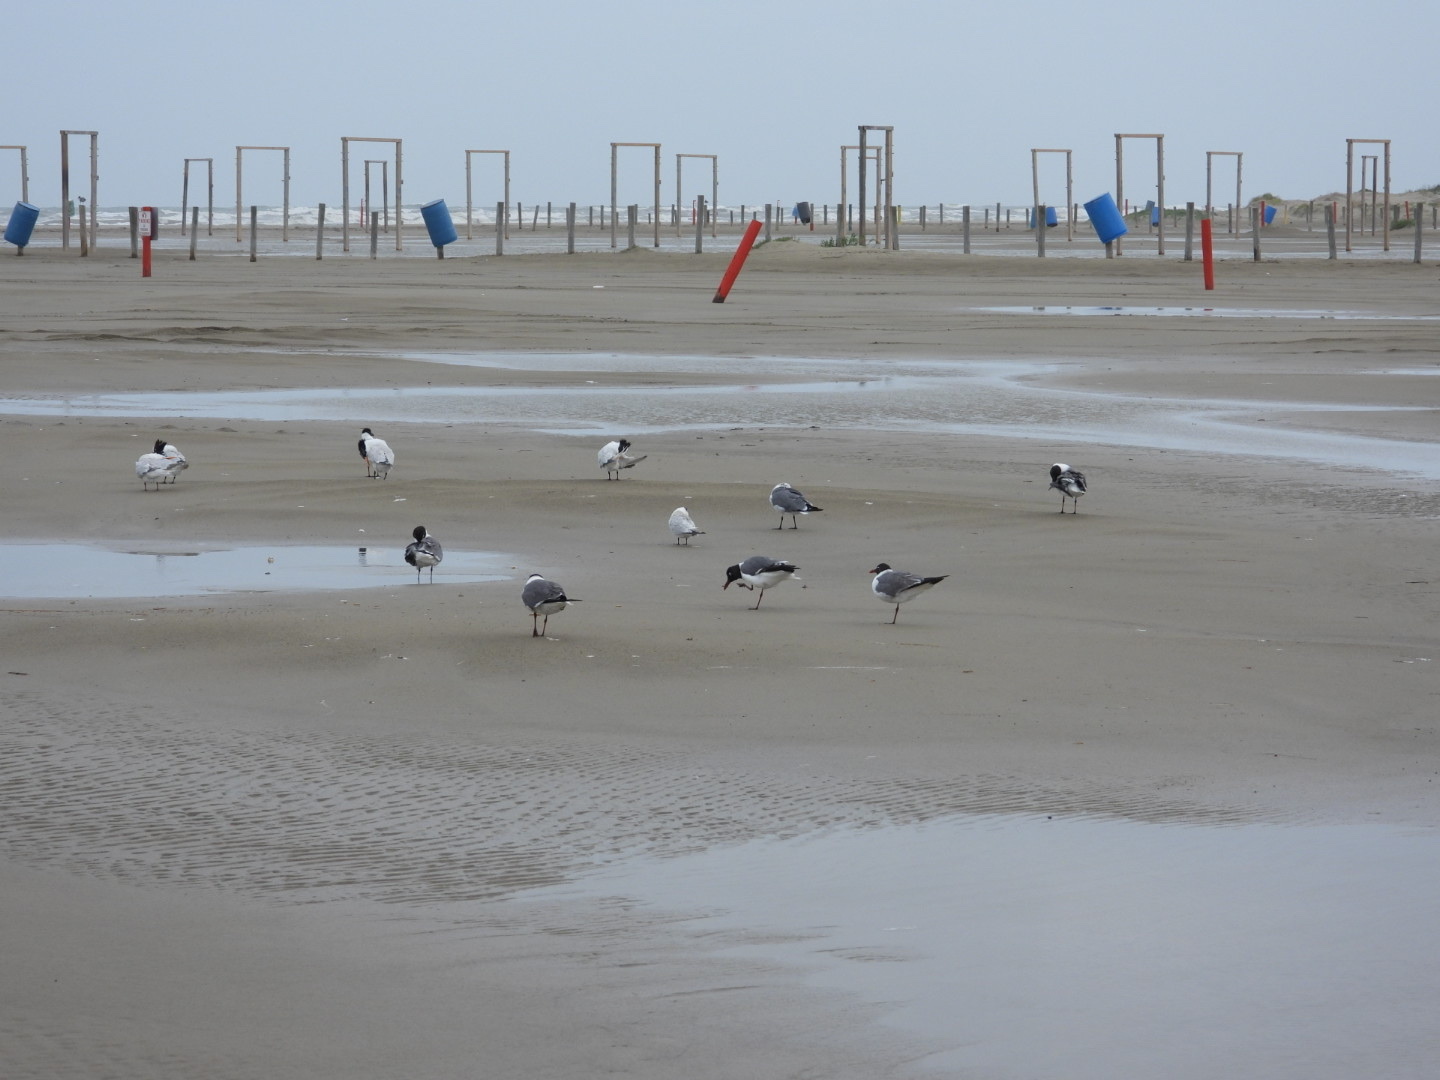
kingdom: Animalia
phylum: Chordata
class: Aves
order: Charadriiformes
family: Laridae
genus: Thalasseus
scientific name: Thalasseus maximus
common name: Royal tern
